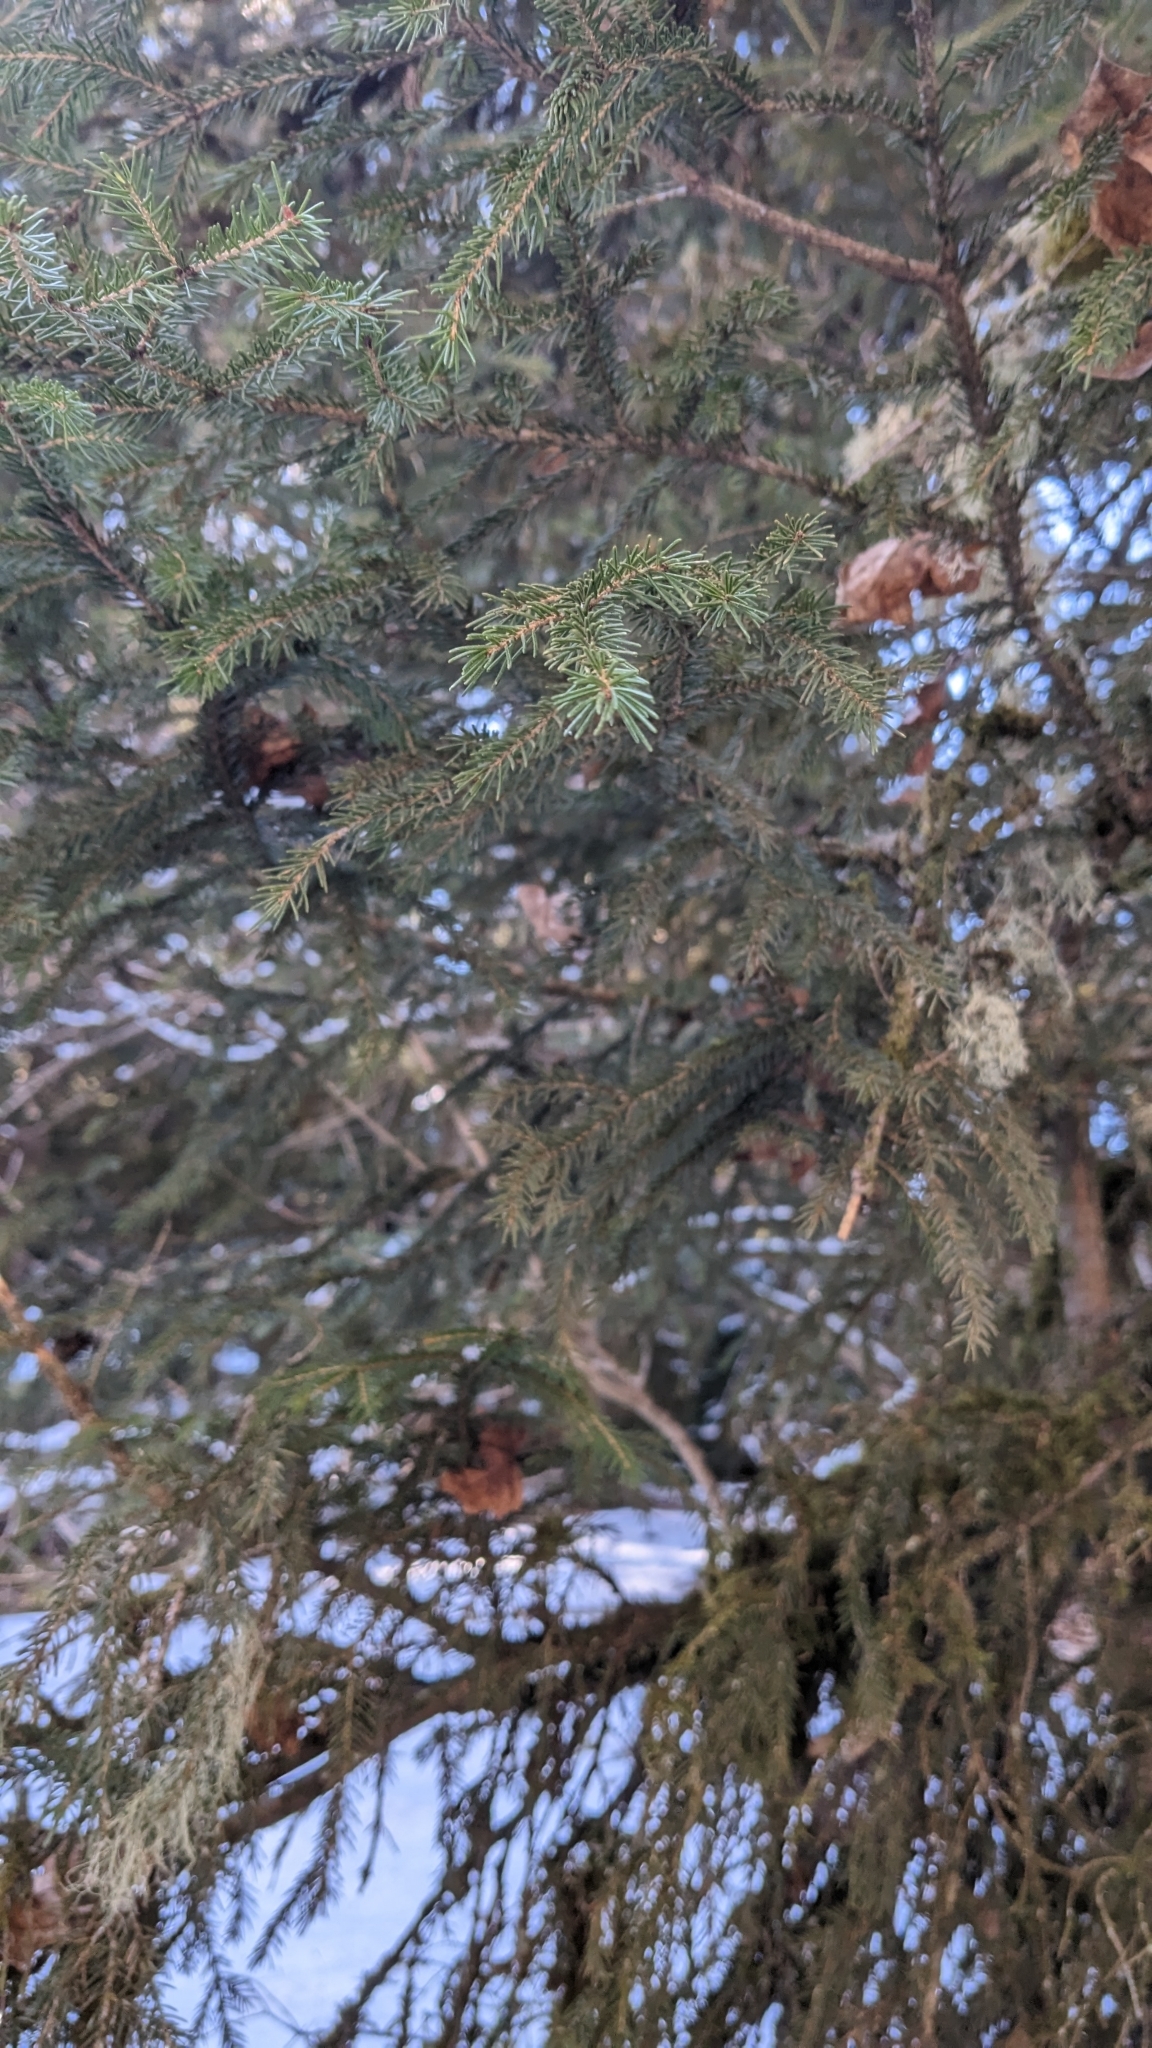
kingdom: Plantae
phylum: Tracheophyta
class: Pinopsida
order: Pinales
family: Pinaceae
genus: Picea
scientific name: Picea orientalis
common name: Oriental spruce
